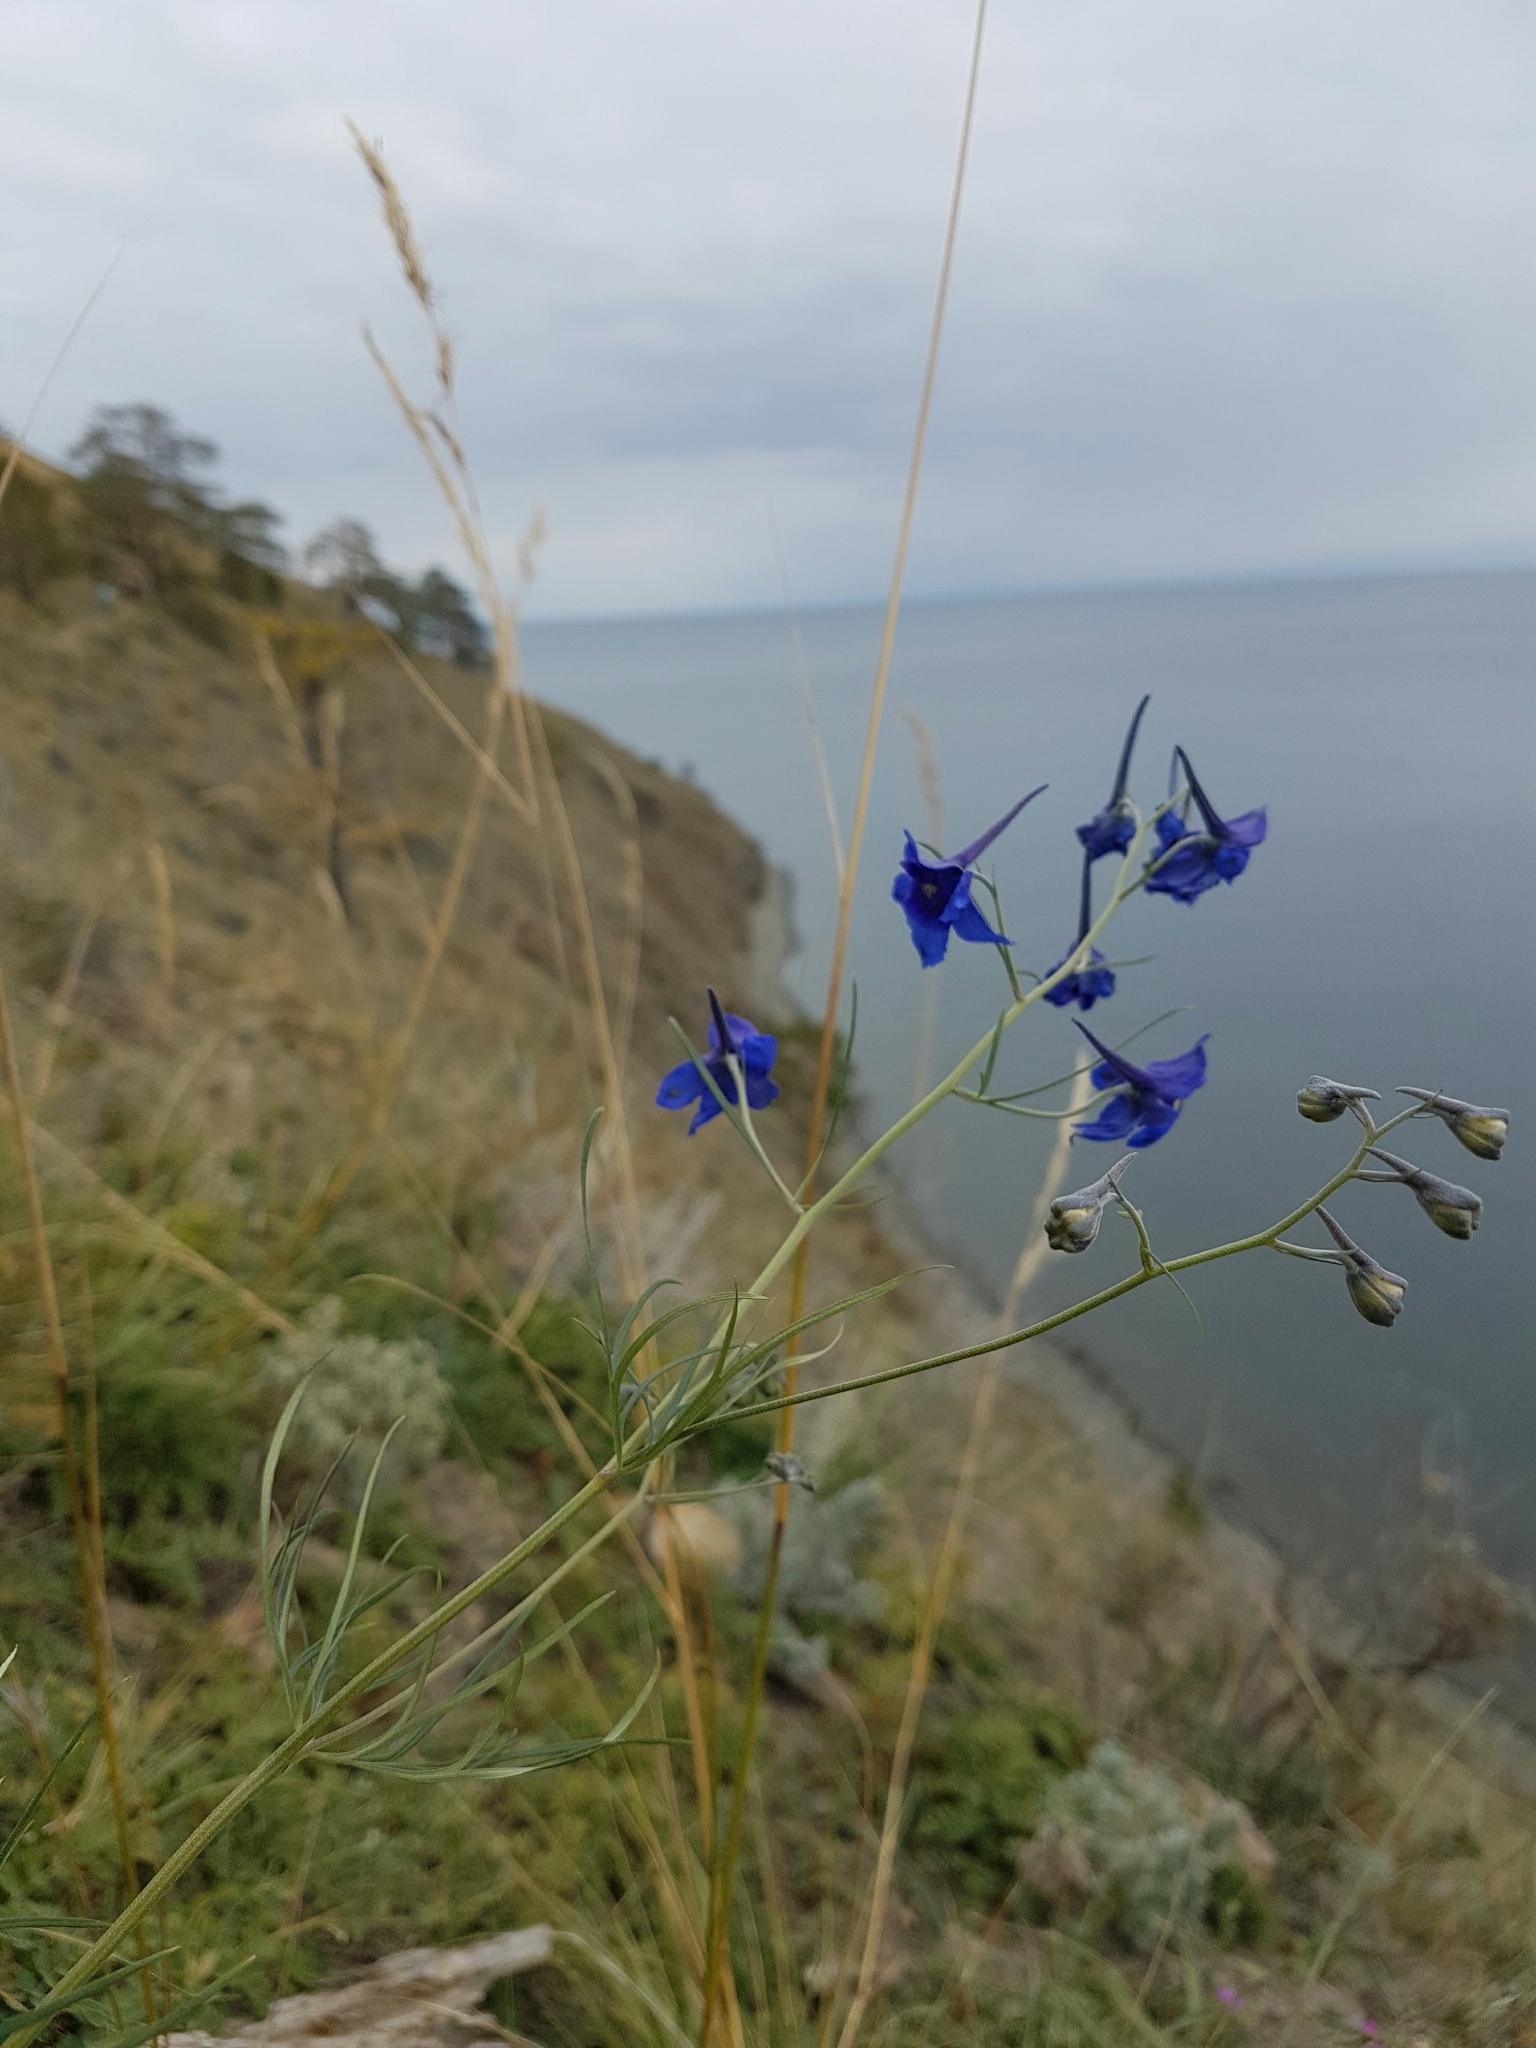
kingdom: Plantae
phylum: Tracheophyta
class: Magnoliopsida
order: Ranunculales
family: Ranunculaceae
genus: Delphinium
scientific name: Delphinium grandiflorum
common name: Siberian larkspur
